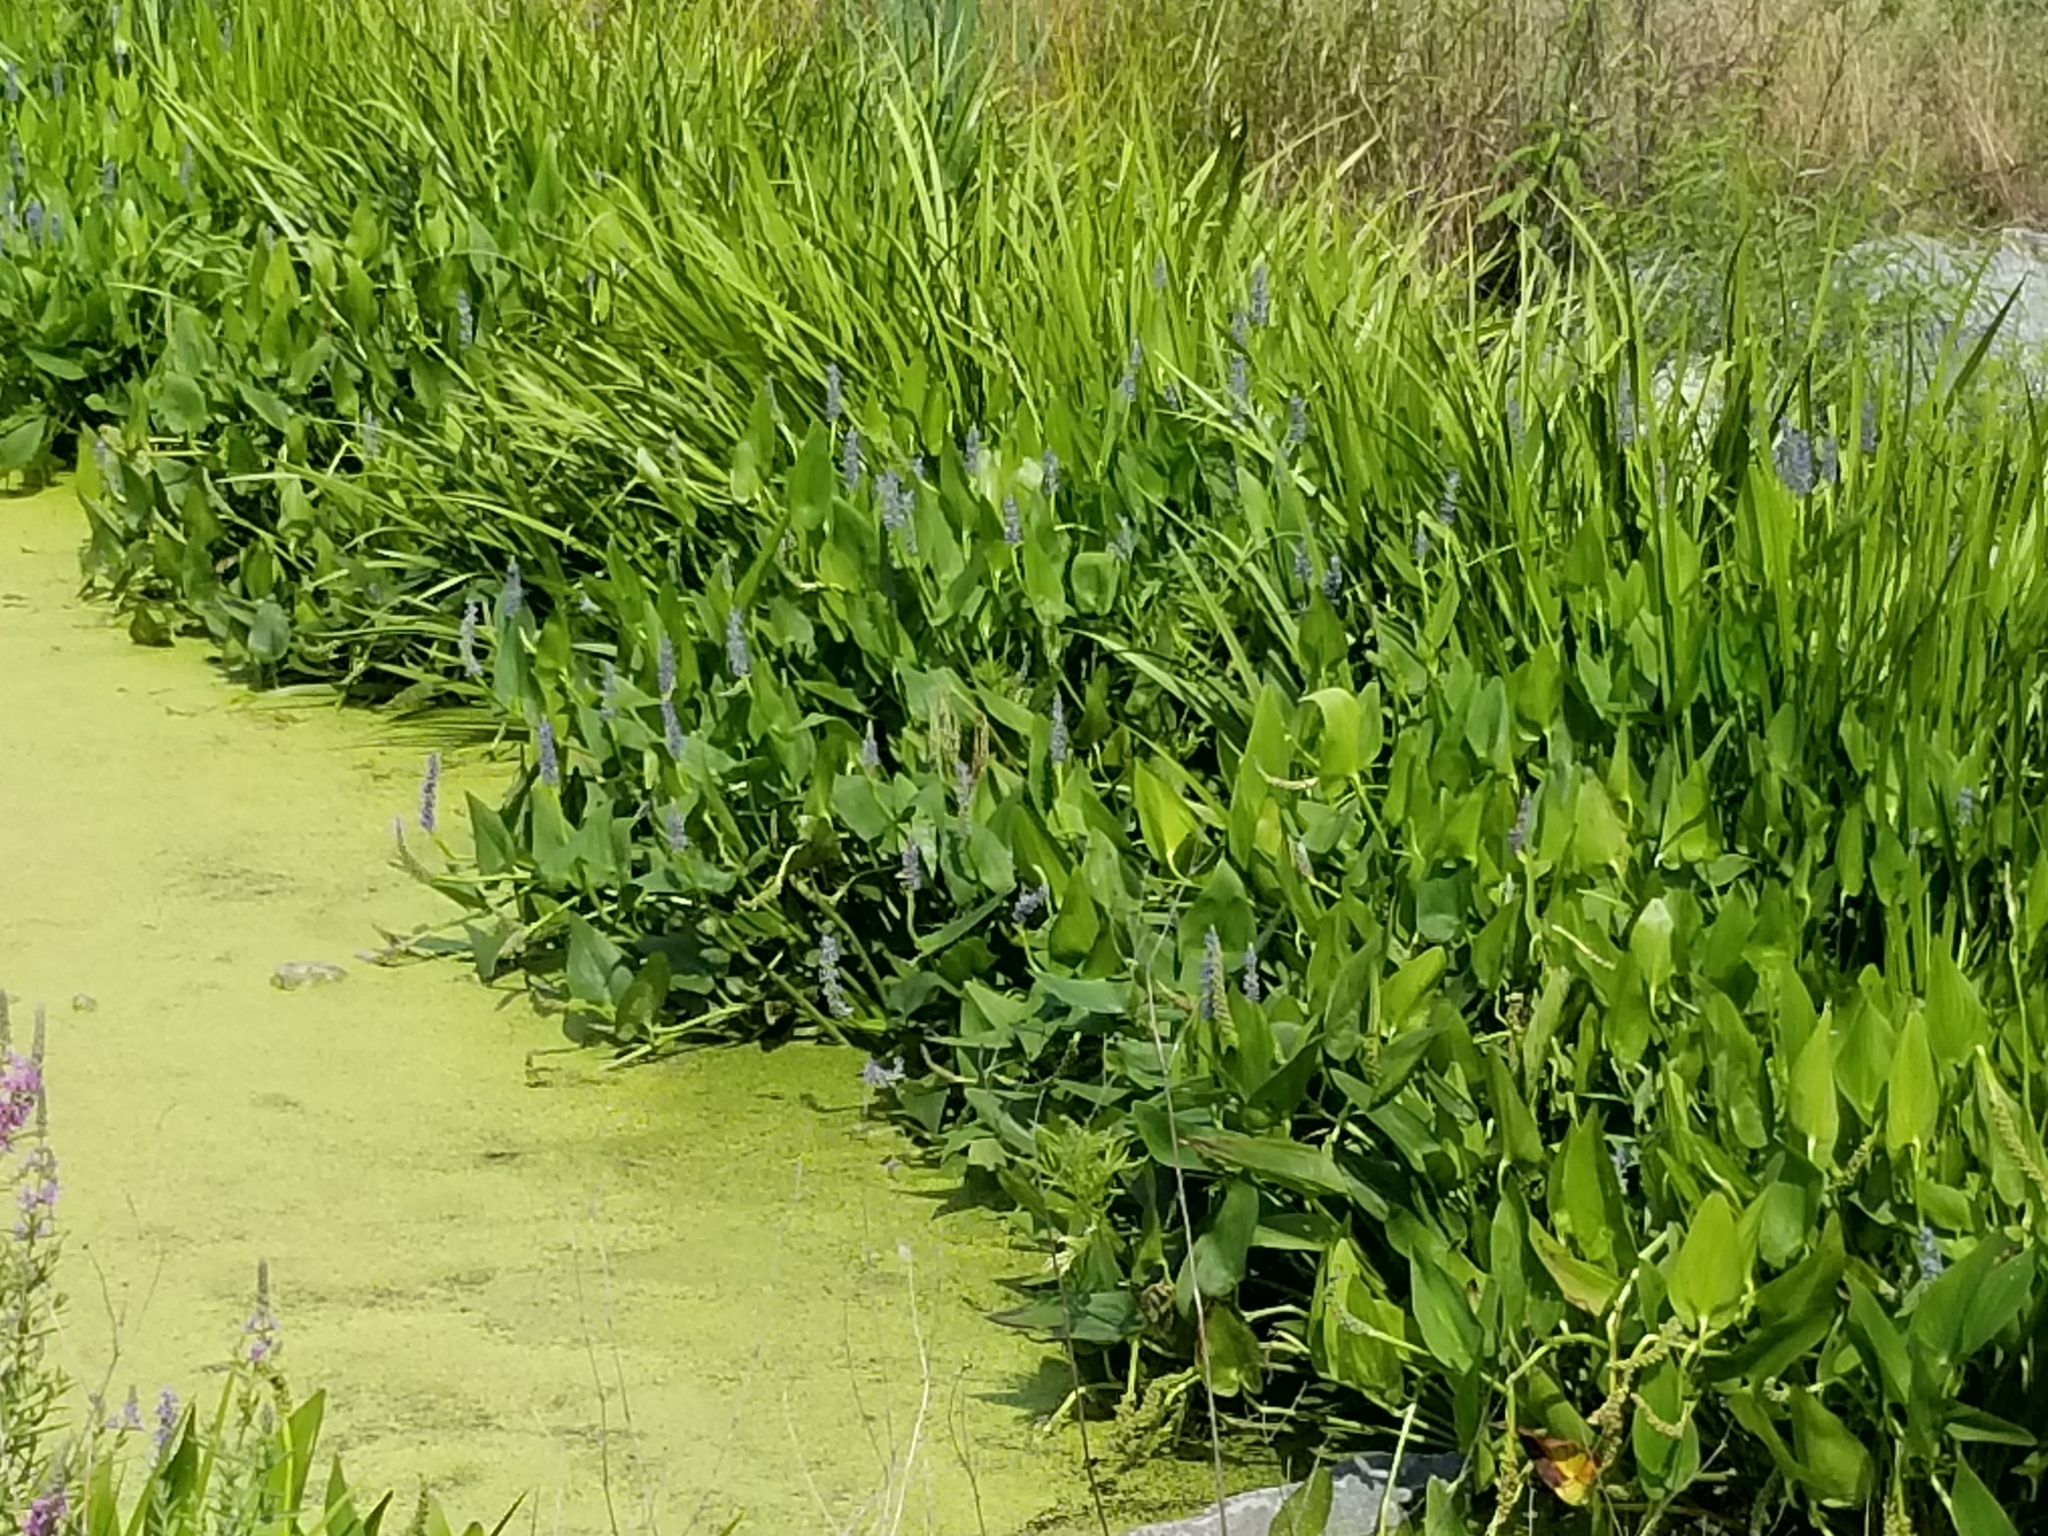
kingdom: Plantae
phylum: Tracheophyta
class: Liliopsida
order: Commelinales
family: Pontederiaceae
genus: Pontederia
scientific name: Pontederia cordata
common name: Pickerelweed
